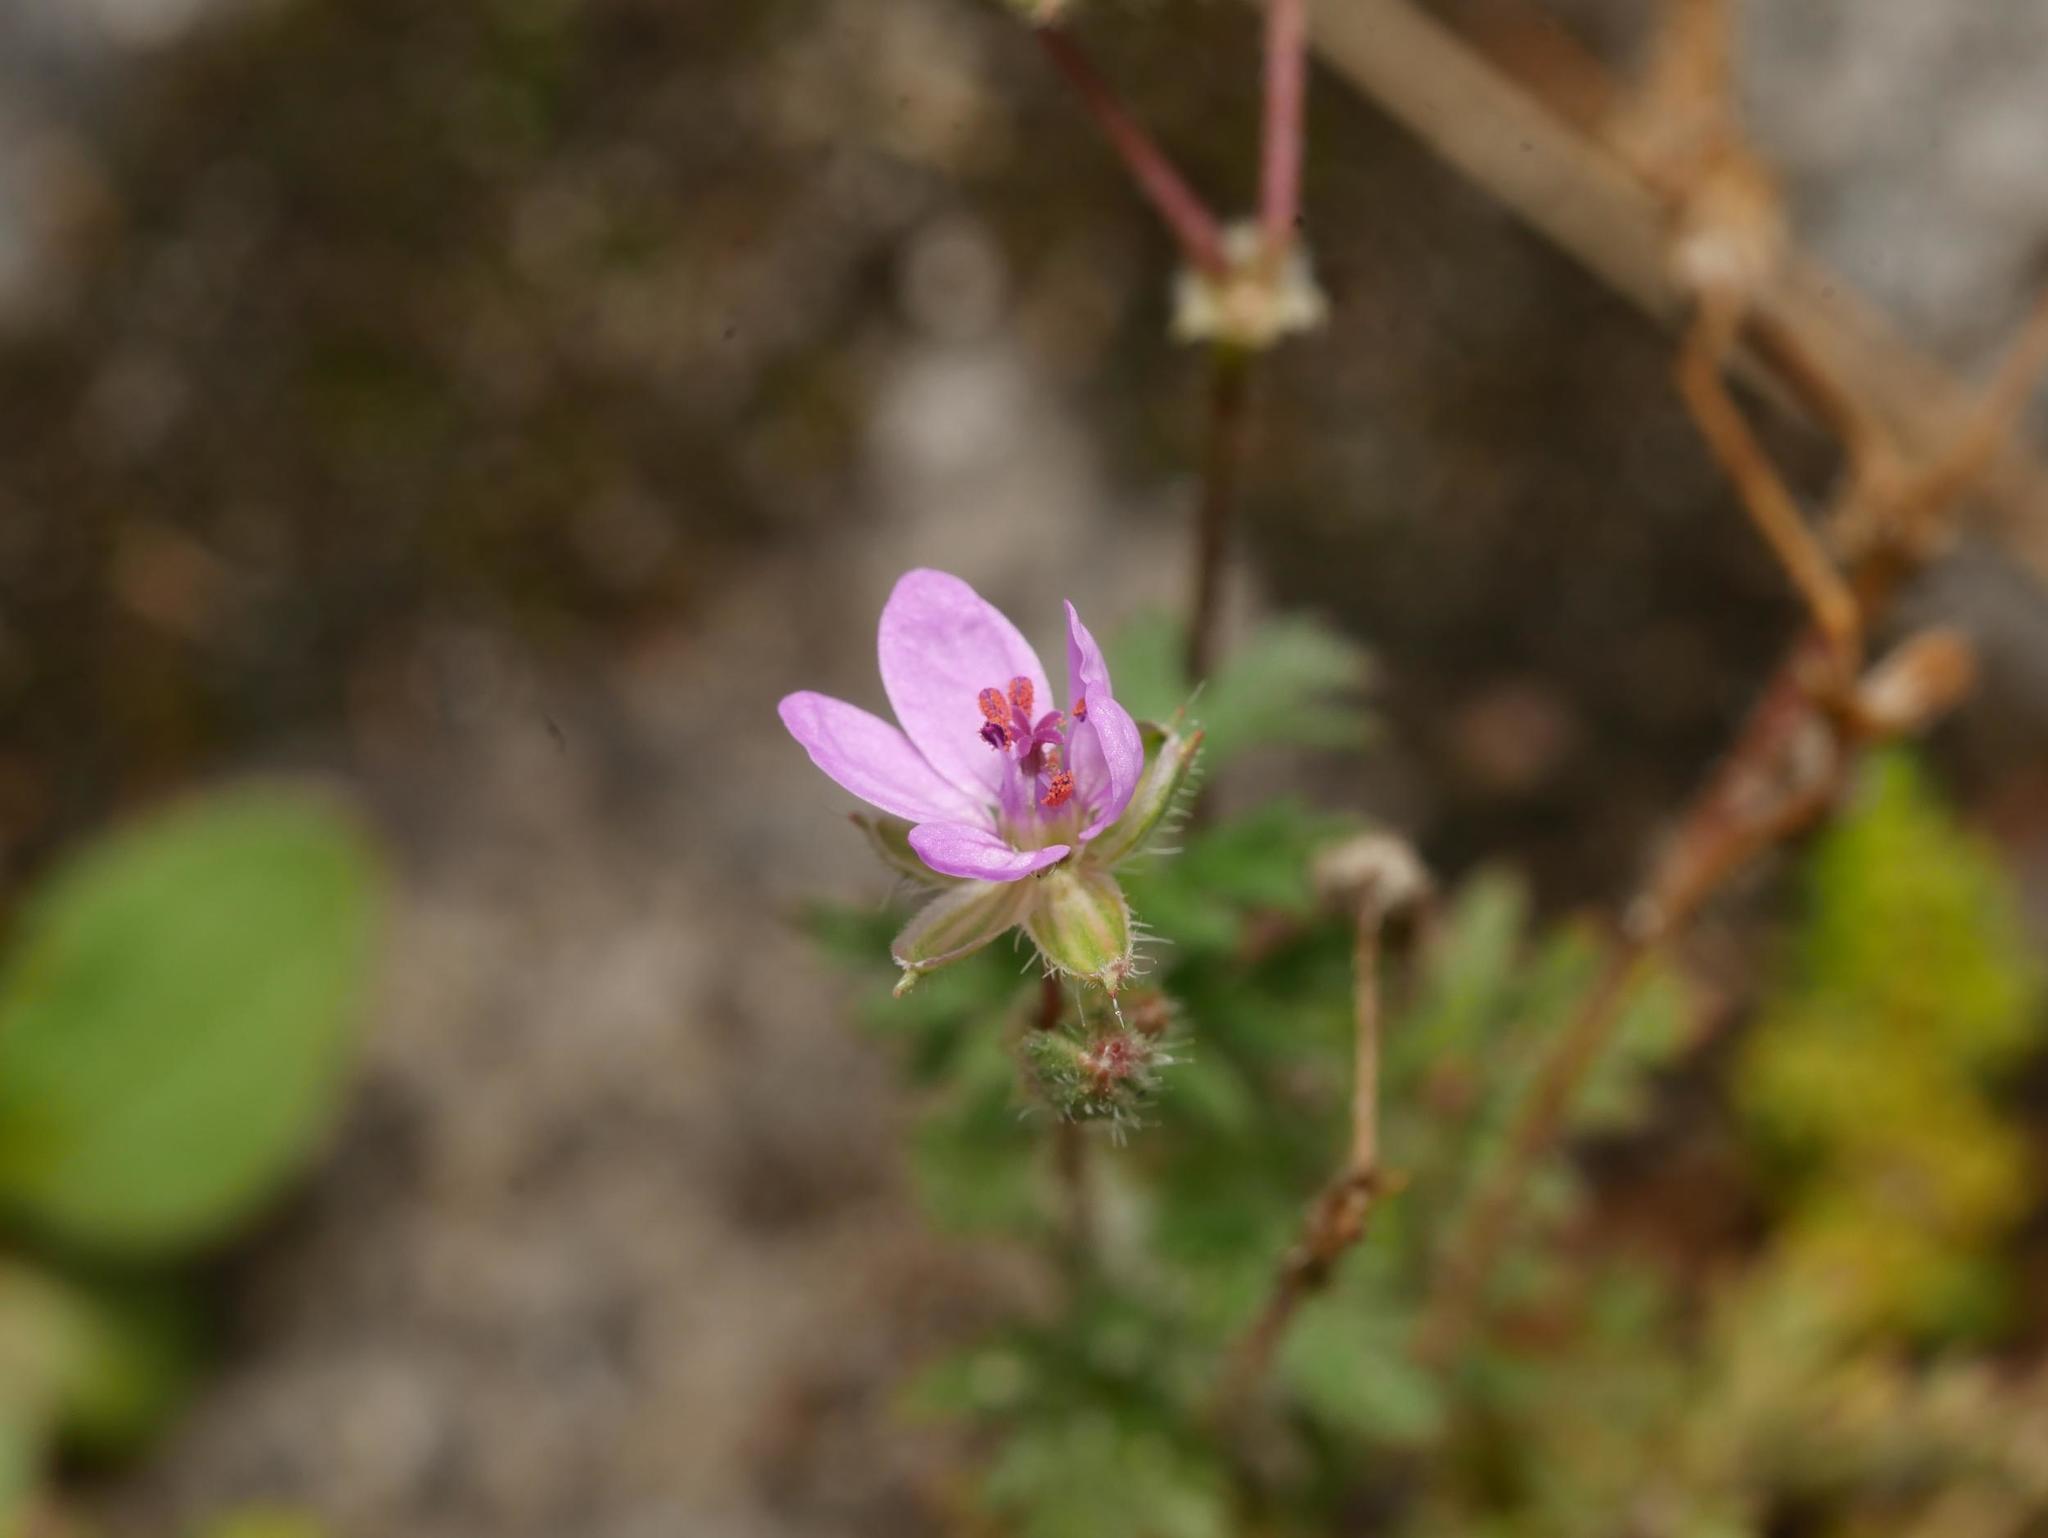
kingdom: Plantae
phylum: Tracheophyta
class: Magnoliopsida
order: Geraniales
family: Geraniaceae
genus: Erodium
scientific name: Erodium cicutarium
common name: Common stork's-bill
